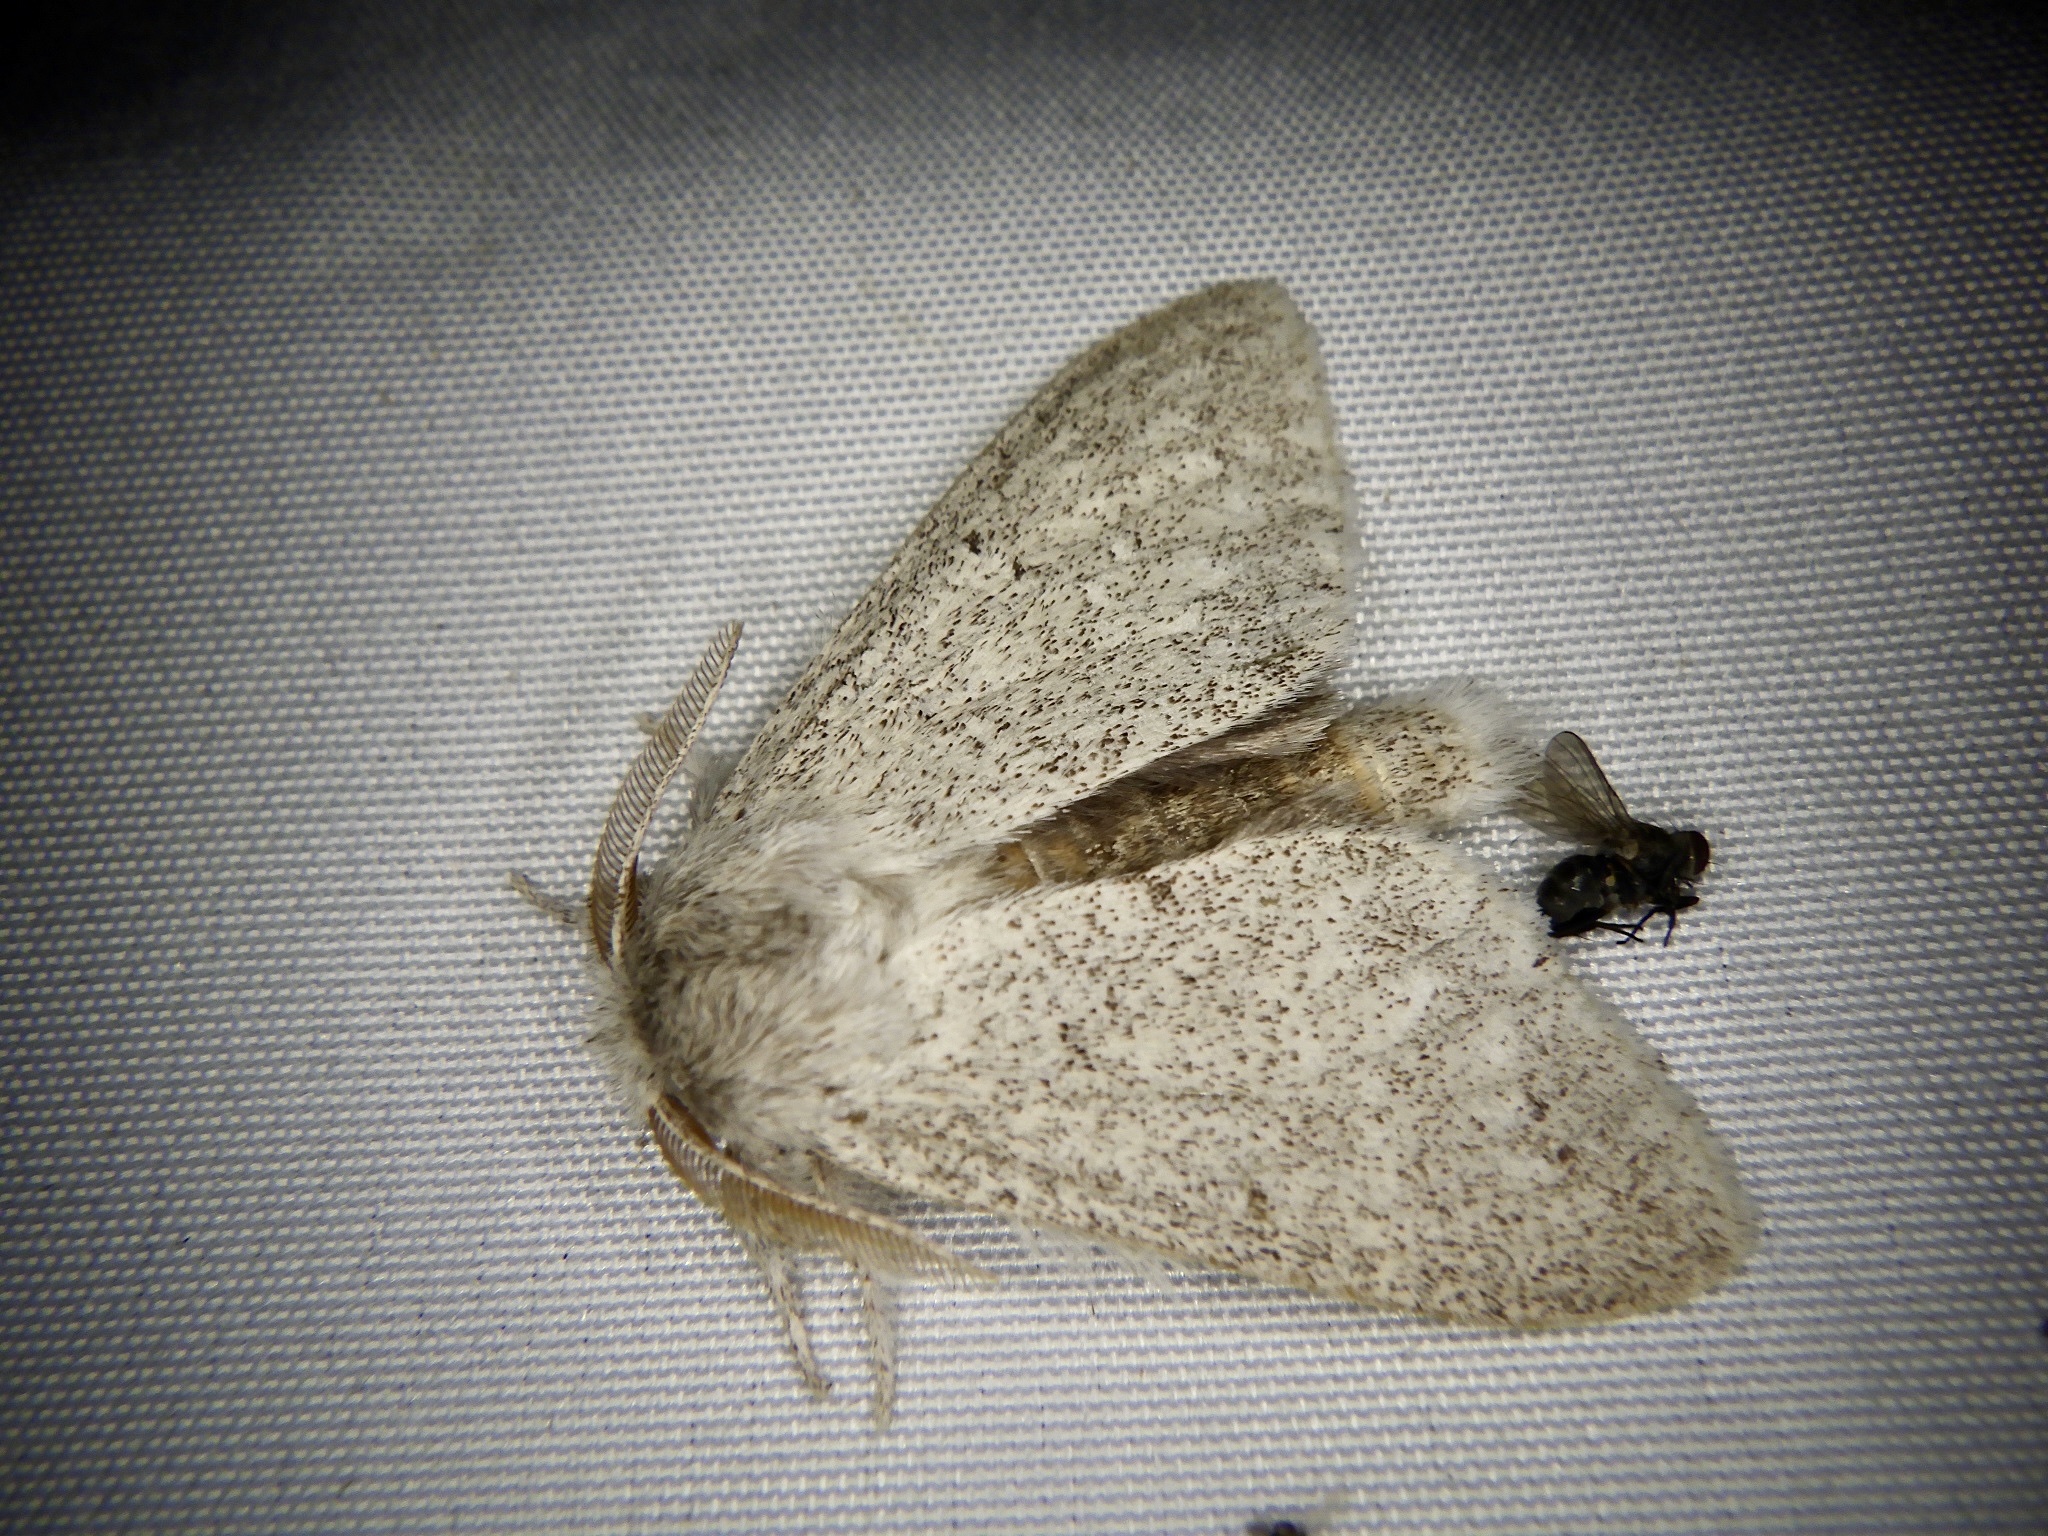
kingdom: Animalia
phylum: Arthropoda
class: Insecta
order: Lepidoptera
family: Notodontidae
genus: Cnethodonta
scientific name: Cnethodonta grisescens
